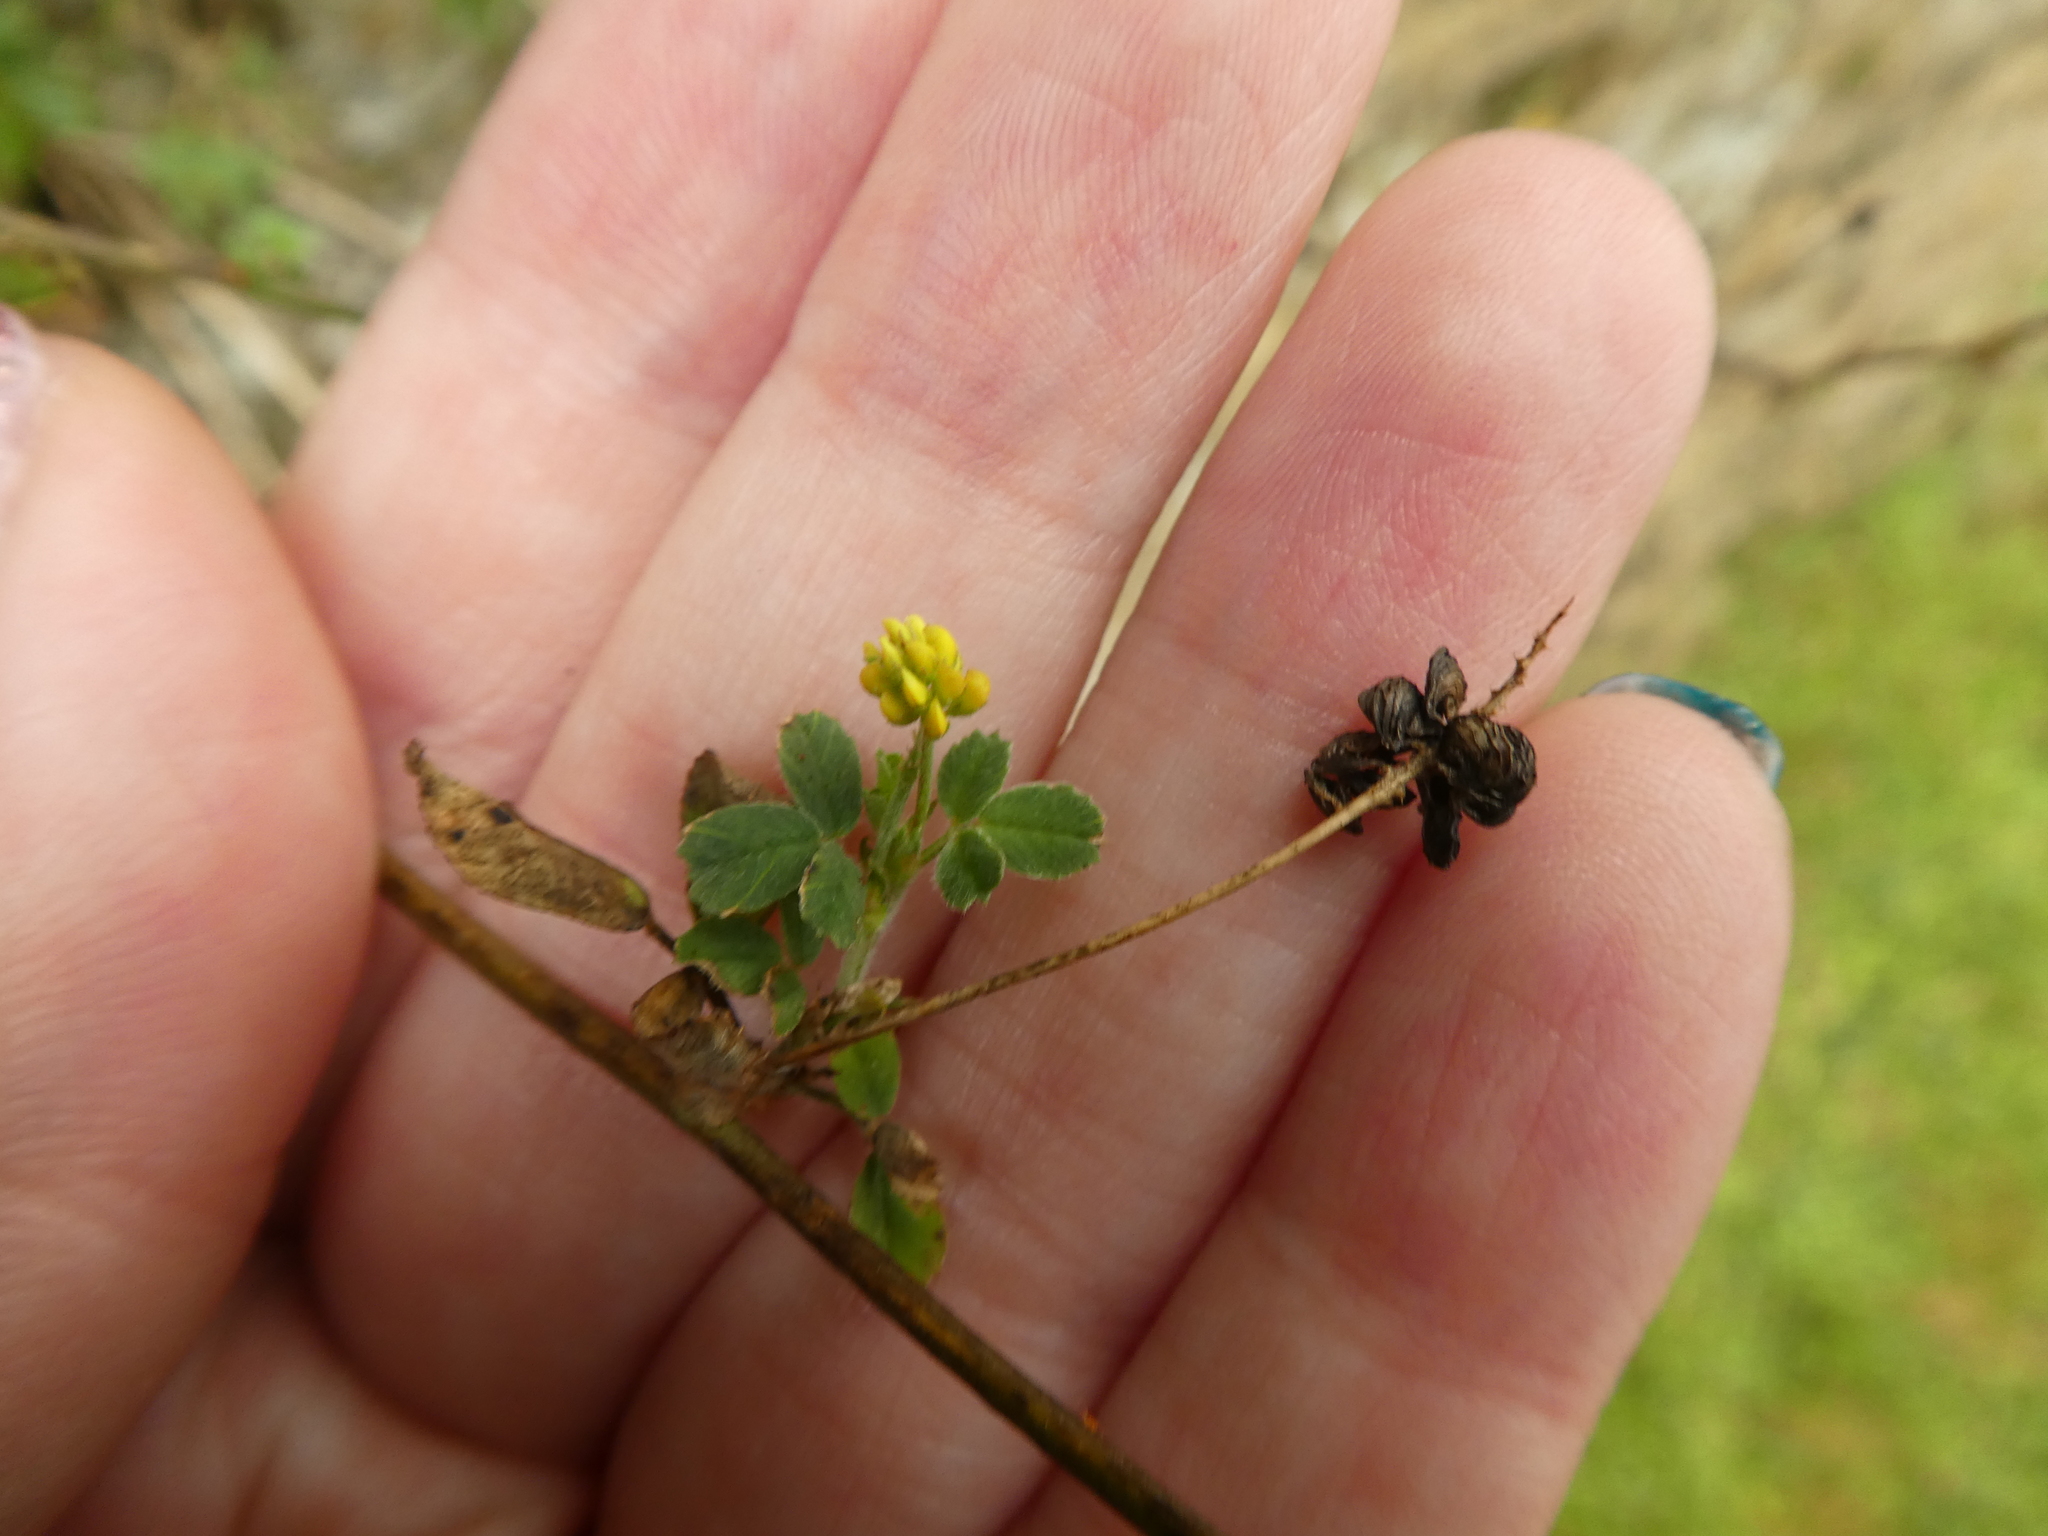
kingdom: Plantae
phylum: Tracheophyta
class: Magnoliopsida
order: Fabales
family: Fabaceae
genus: Medicago
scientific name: Medicago lupulina
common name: Black medick
